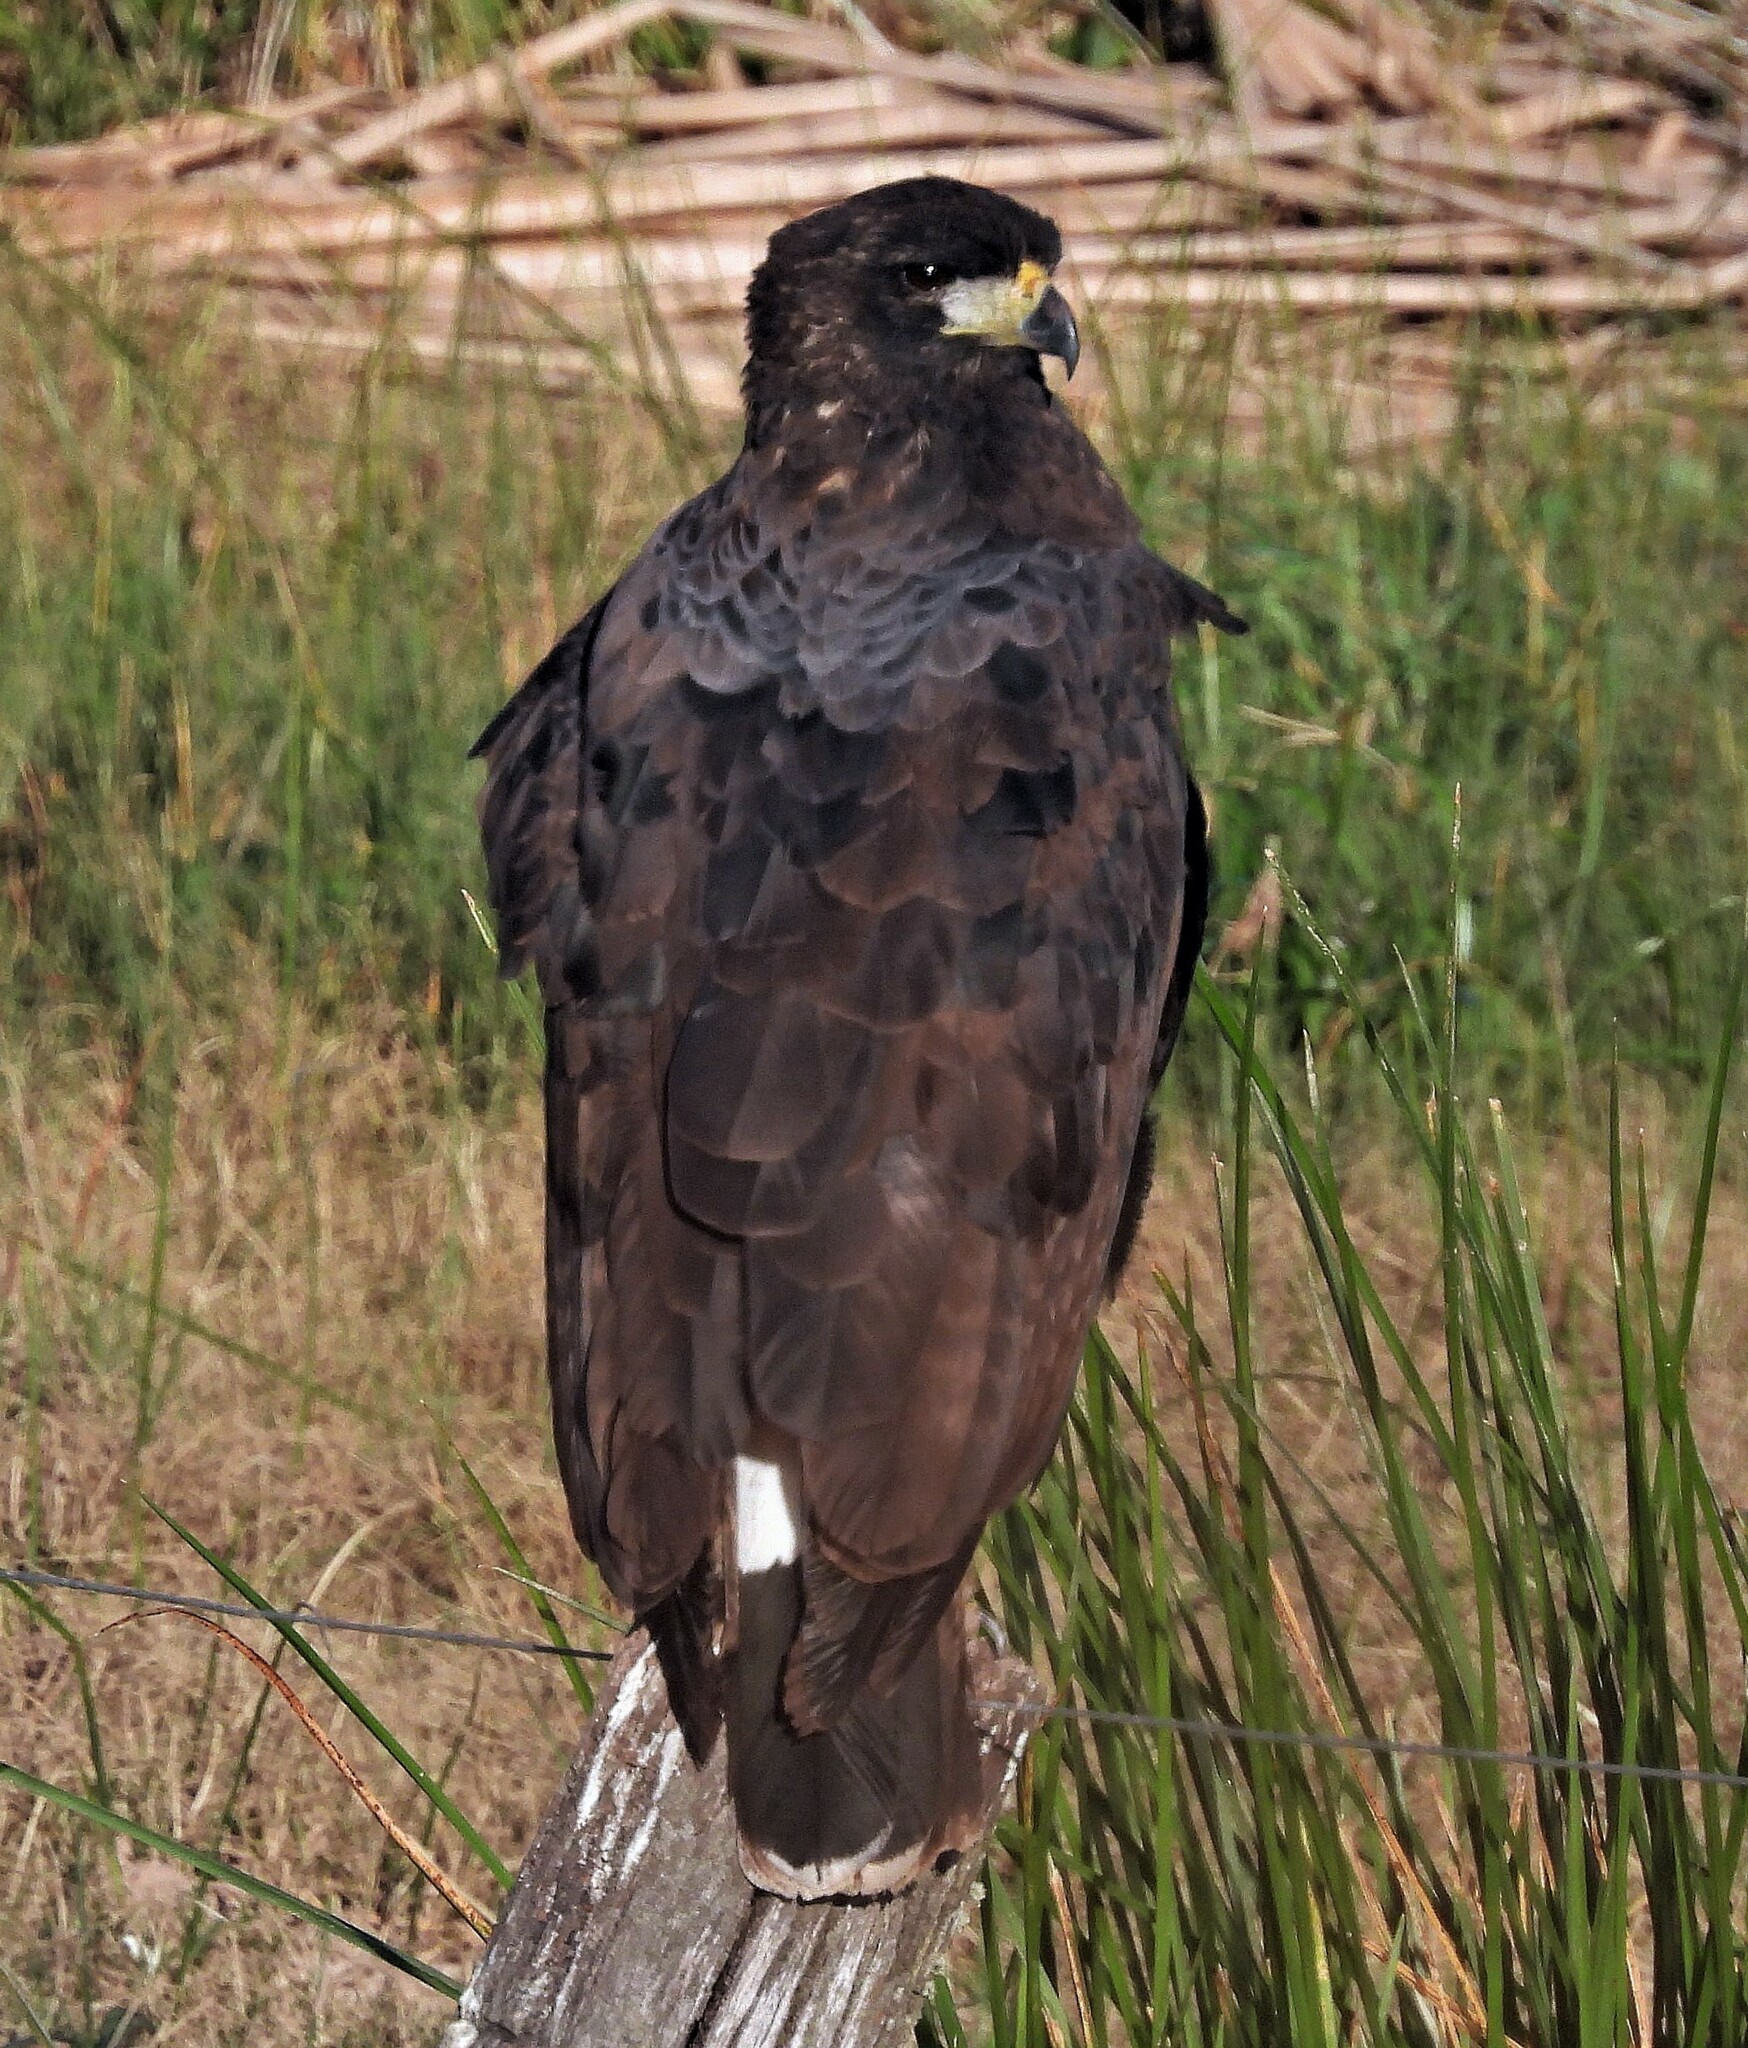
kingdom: Animalia
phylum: Chordata
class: Aves
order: Accipitriformes
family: Accipitridae
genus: Buteogallus
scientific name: Buteogallus urubitinga
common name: Great black hawk
